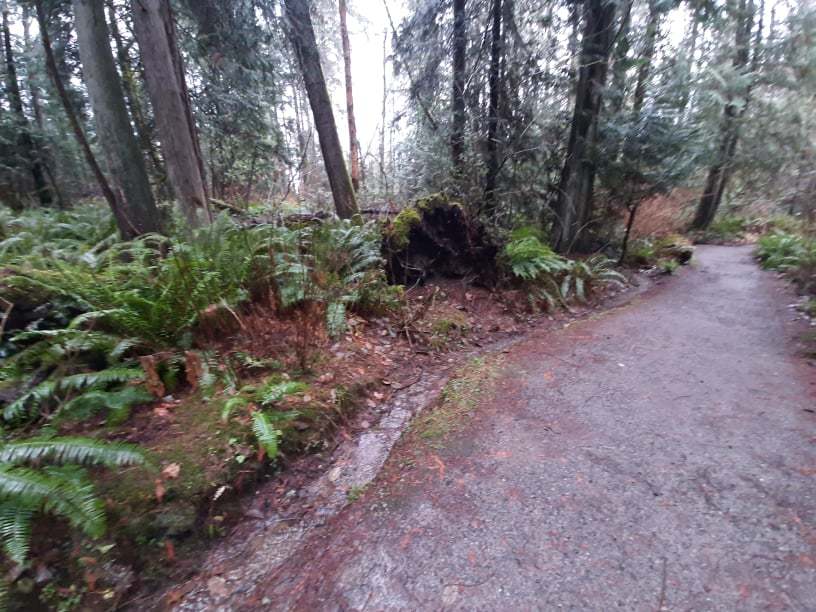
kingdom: Plantae
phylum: Marchantiophyta
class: Jungermanniopsida
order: Metzgeriales
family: Aneuraceae
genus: Riccardia
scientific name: Riccardia multifida
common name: Delicate germanderwort
